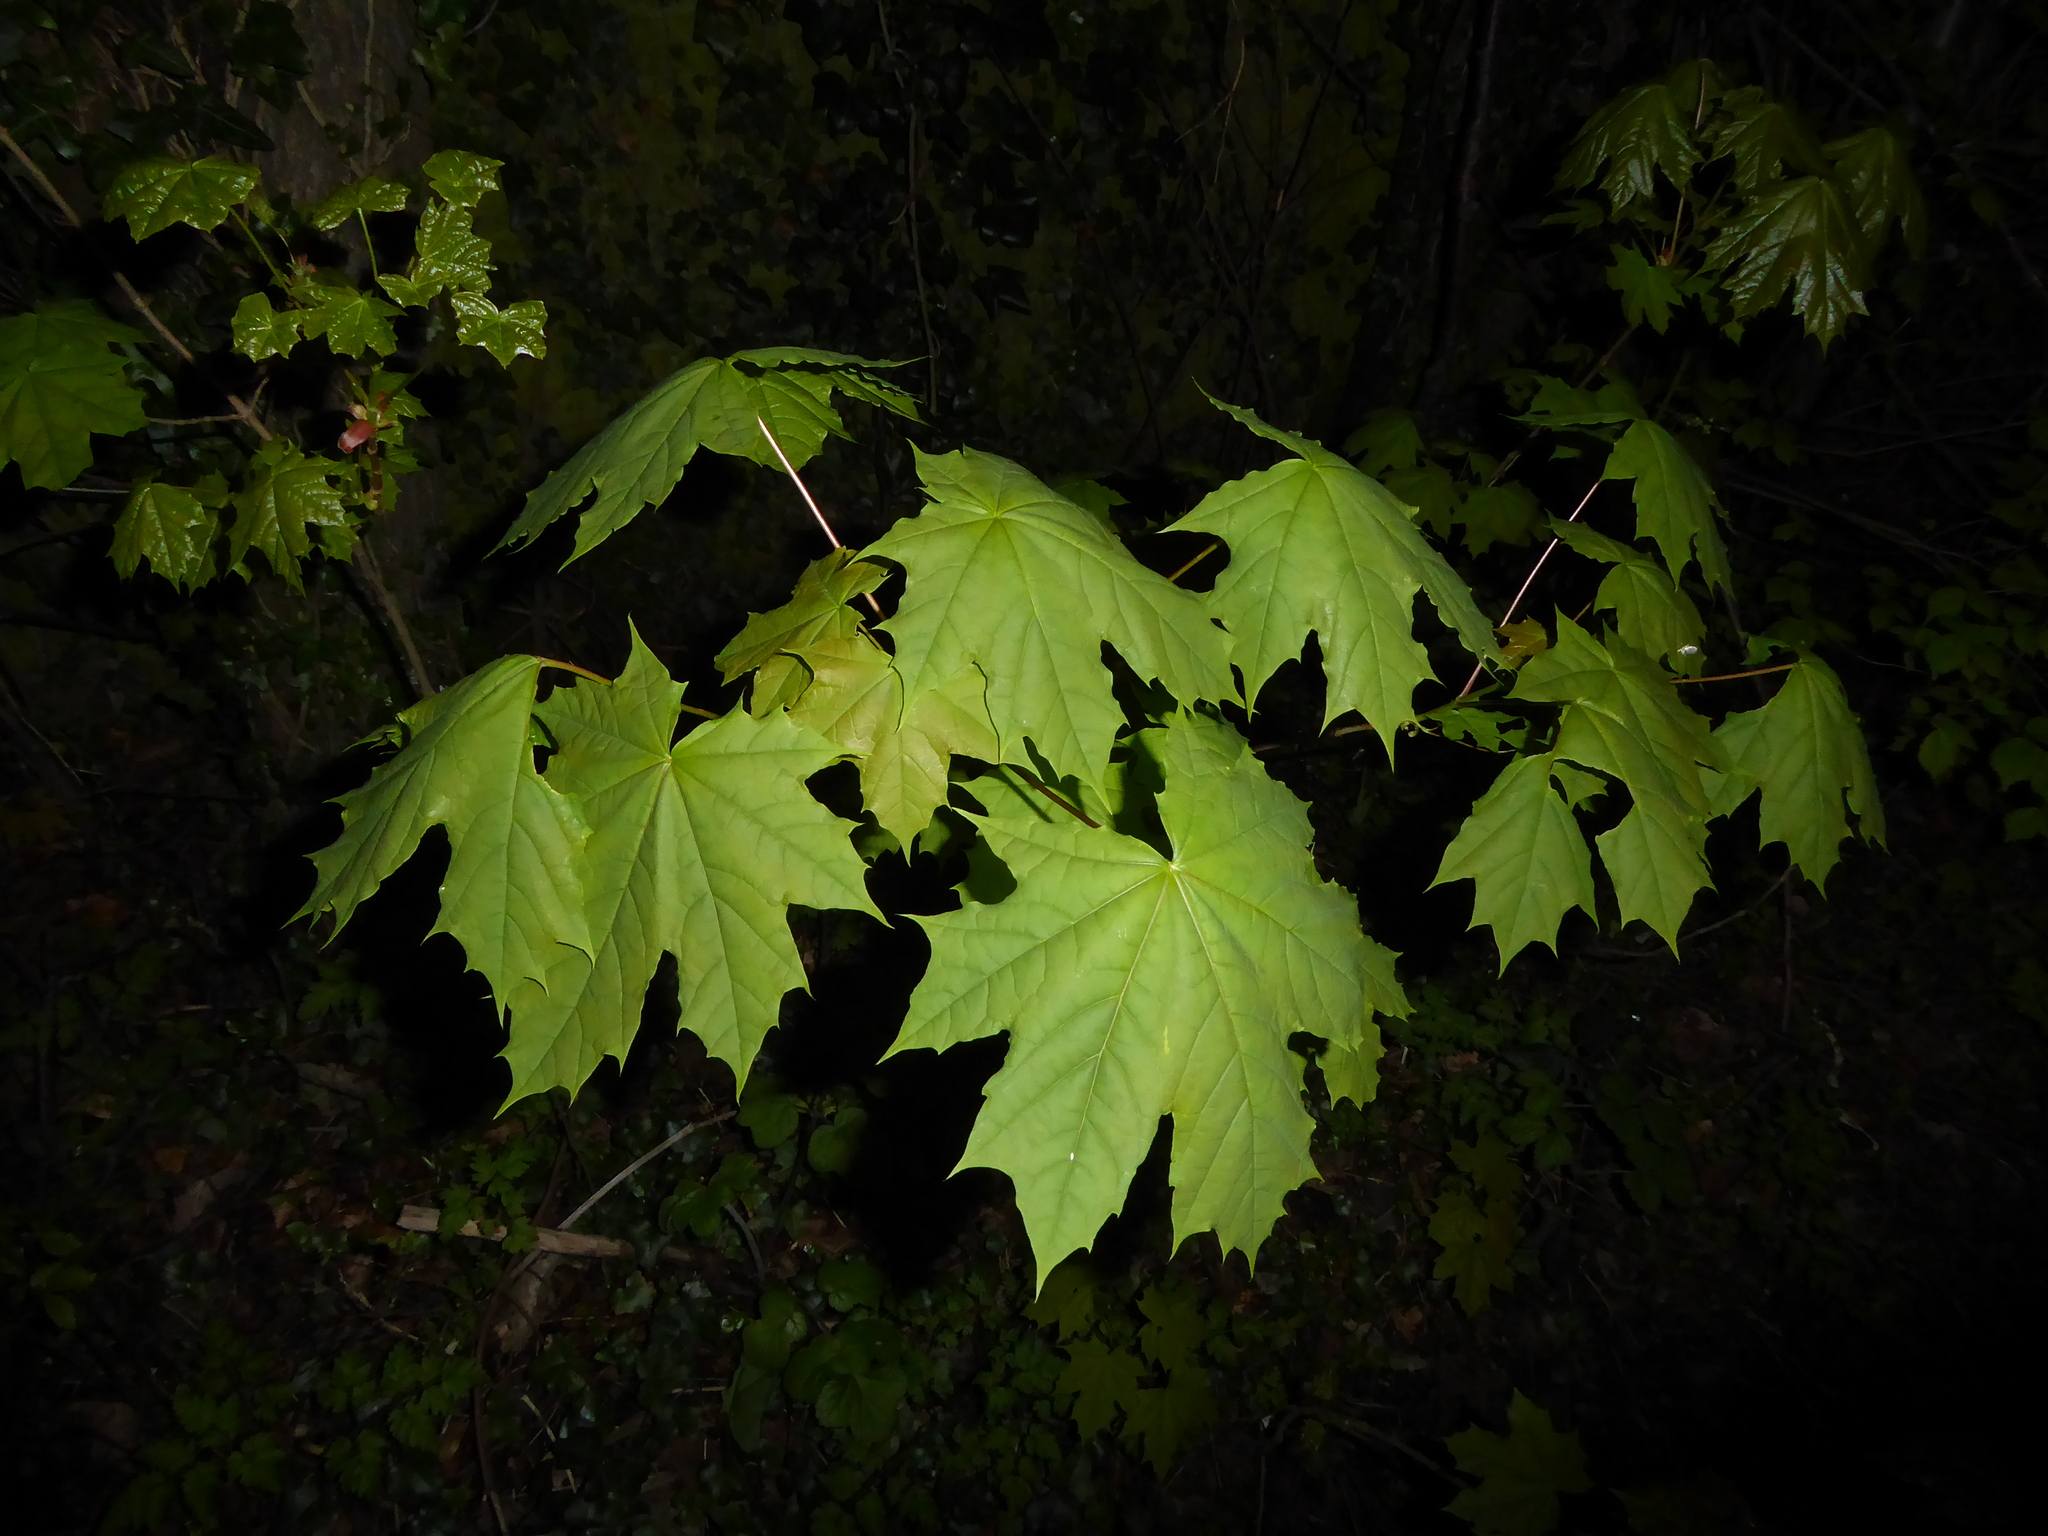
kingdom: Plantae
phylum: Tracheophyta
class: Magnoliopsida
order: Sapindales
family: Sapindaceae
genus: Acer
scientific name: Acer platanoides
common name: Norway maple
